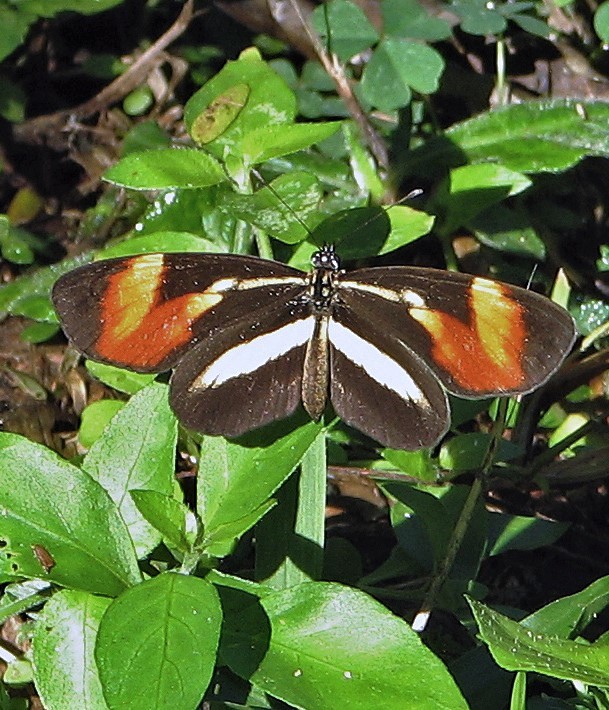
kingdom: Animalia
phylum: Arthropoda
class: Insecta
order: Lepidoptera
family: Nymphalidae
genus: Eresia
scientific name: Eresia lansdorfi
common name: Lansdorf's crescent
